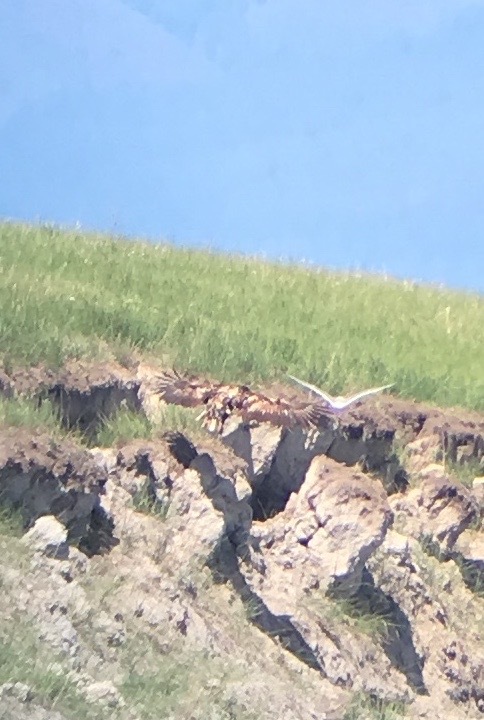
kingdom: Animalia
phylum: Chordata
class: Aves
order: Accipitriformes
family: Accipitridae
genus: Haliaeetus
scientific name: Haliaeetus albicilla
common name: White-tailed eagle
